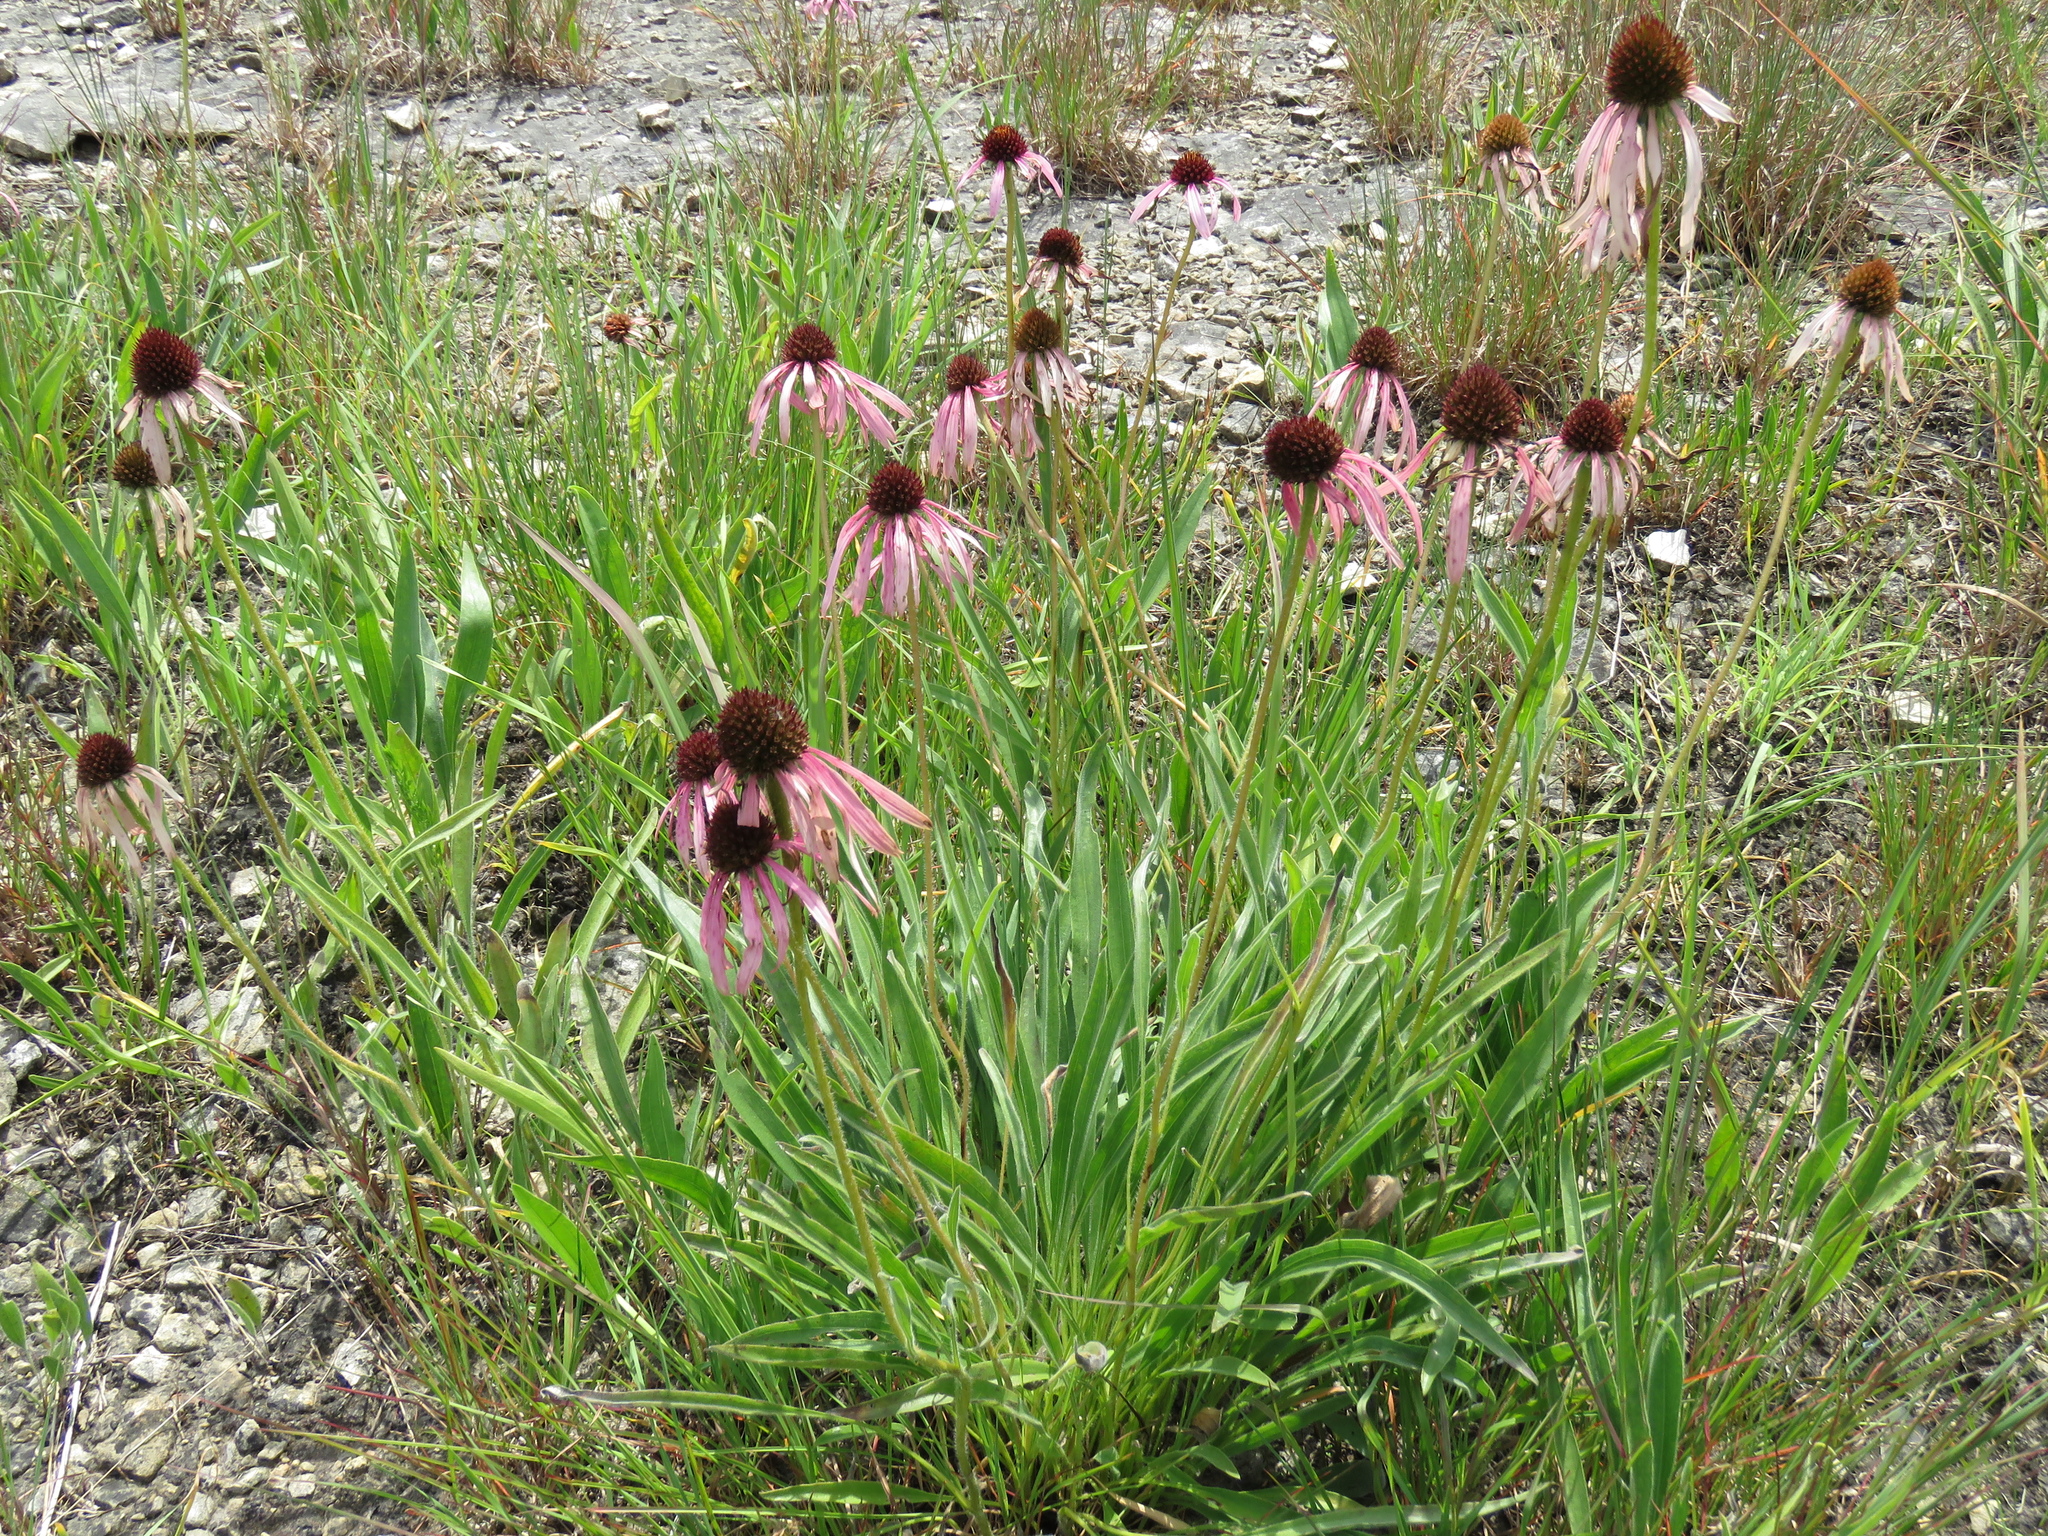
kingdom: Plantae
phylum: Tracheophyta
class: Magnoliopsida
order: Asterales
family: Asteraceae
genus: Echinacea
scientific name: Echinacea pallida
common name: Pale echinacea
